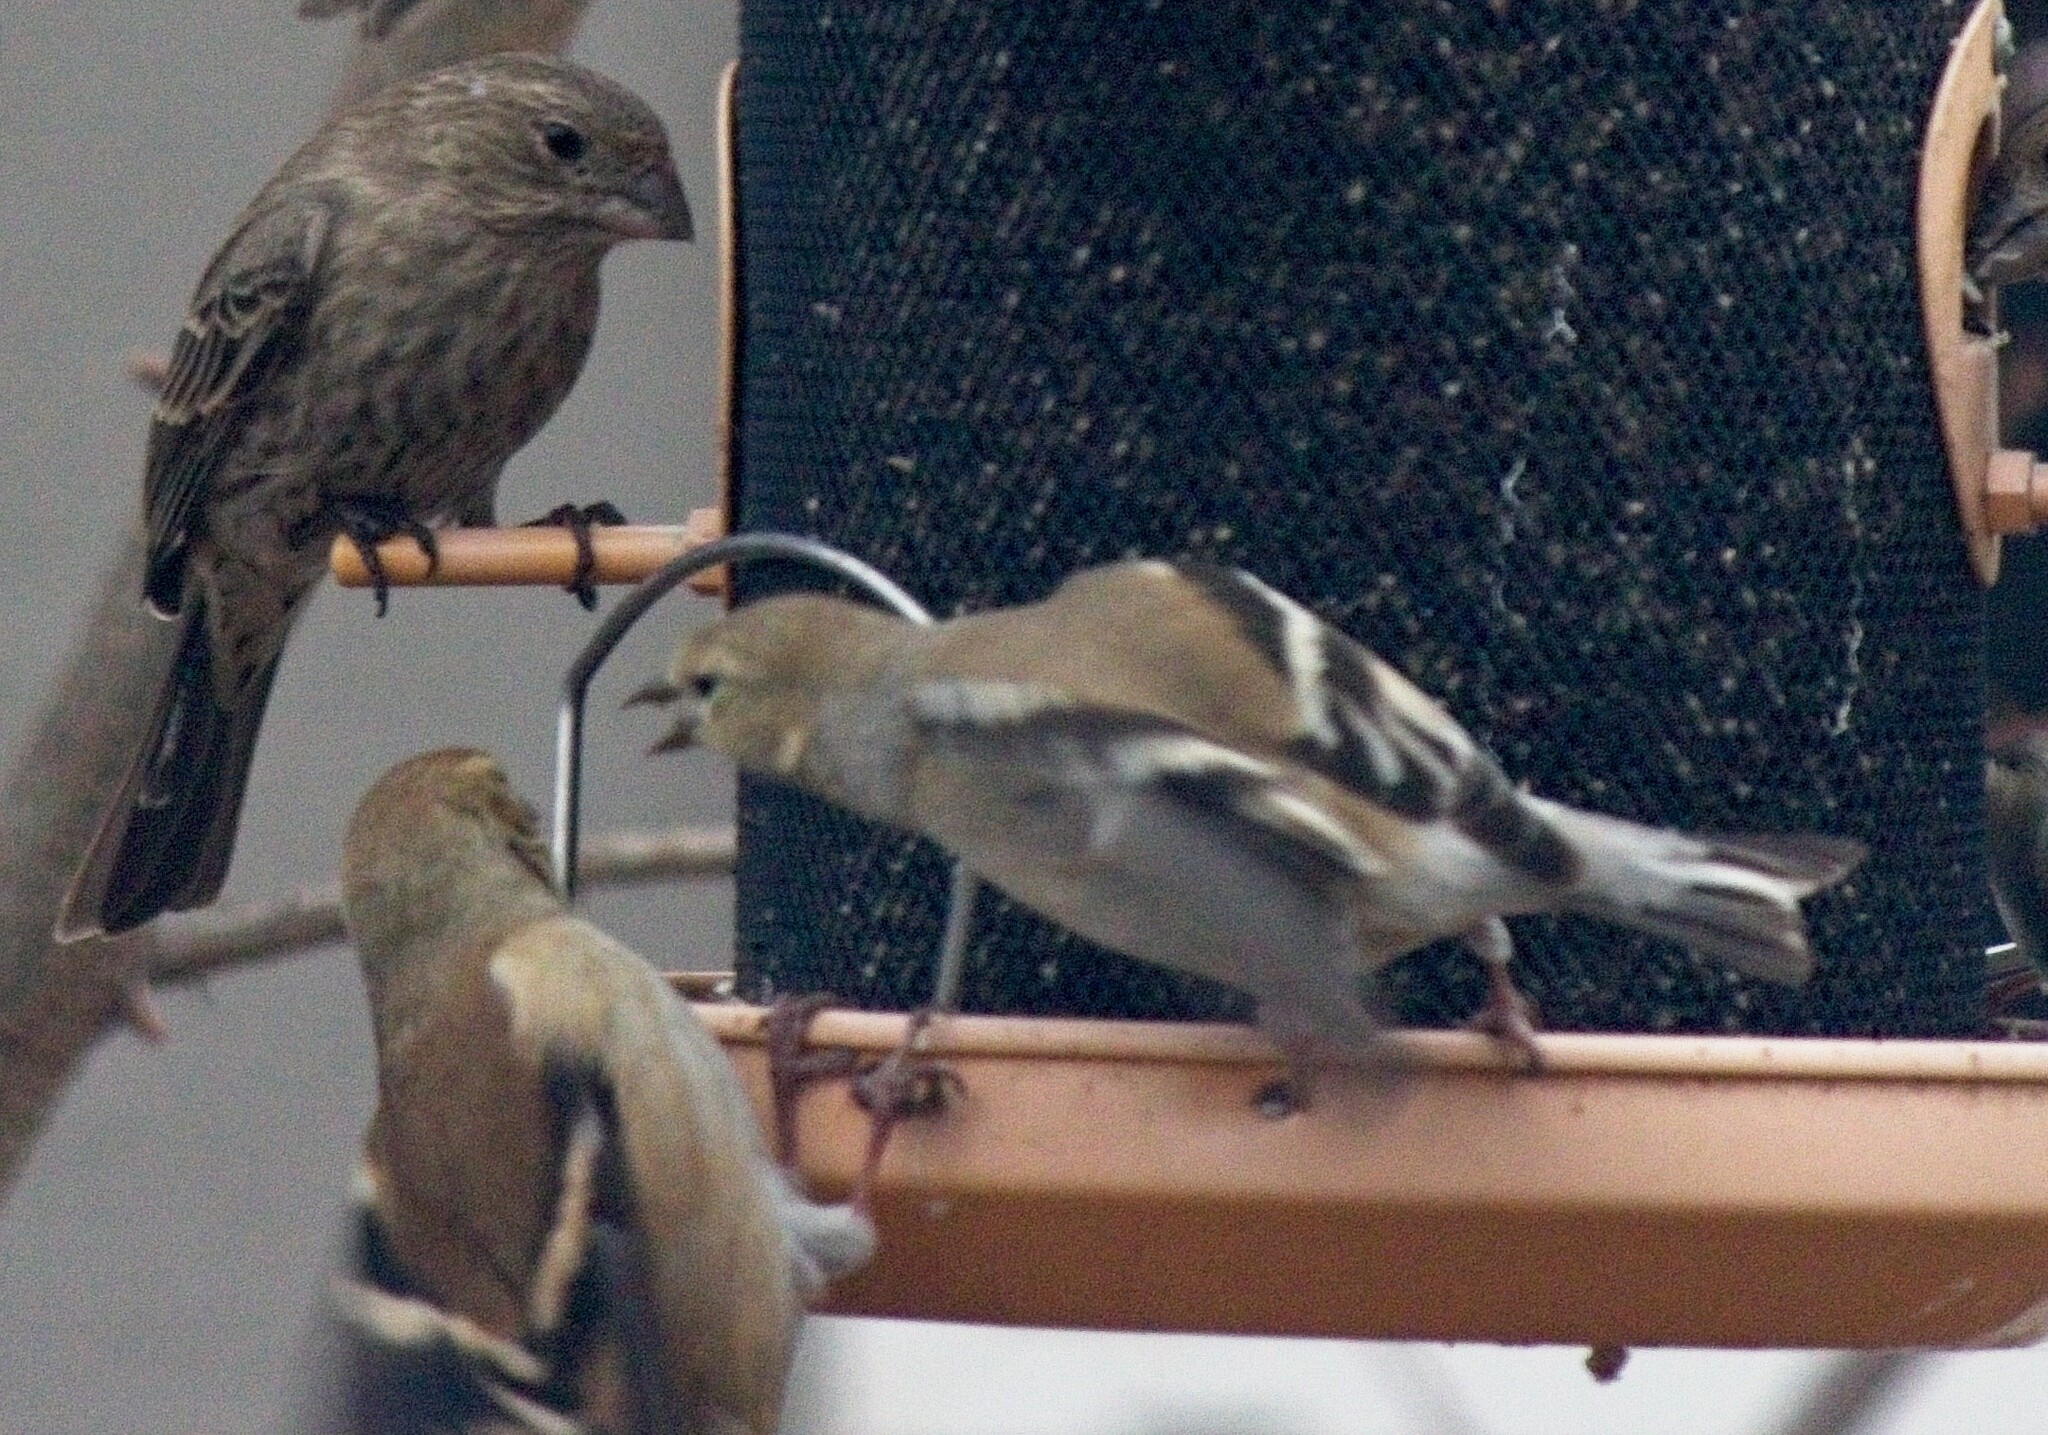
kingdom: Animalia
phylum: Chordata
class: Aves
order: Passeriformes
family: Fringillidae
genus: Spinus
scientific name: Spinus tristis
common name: American goldfinch
